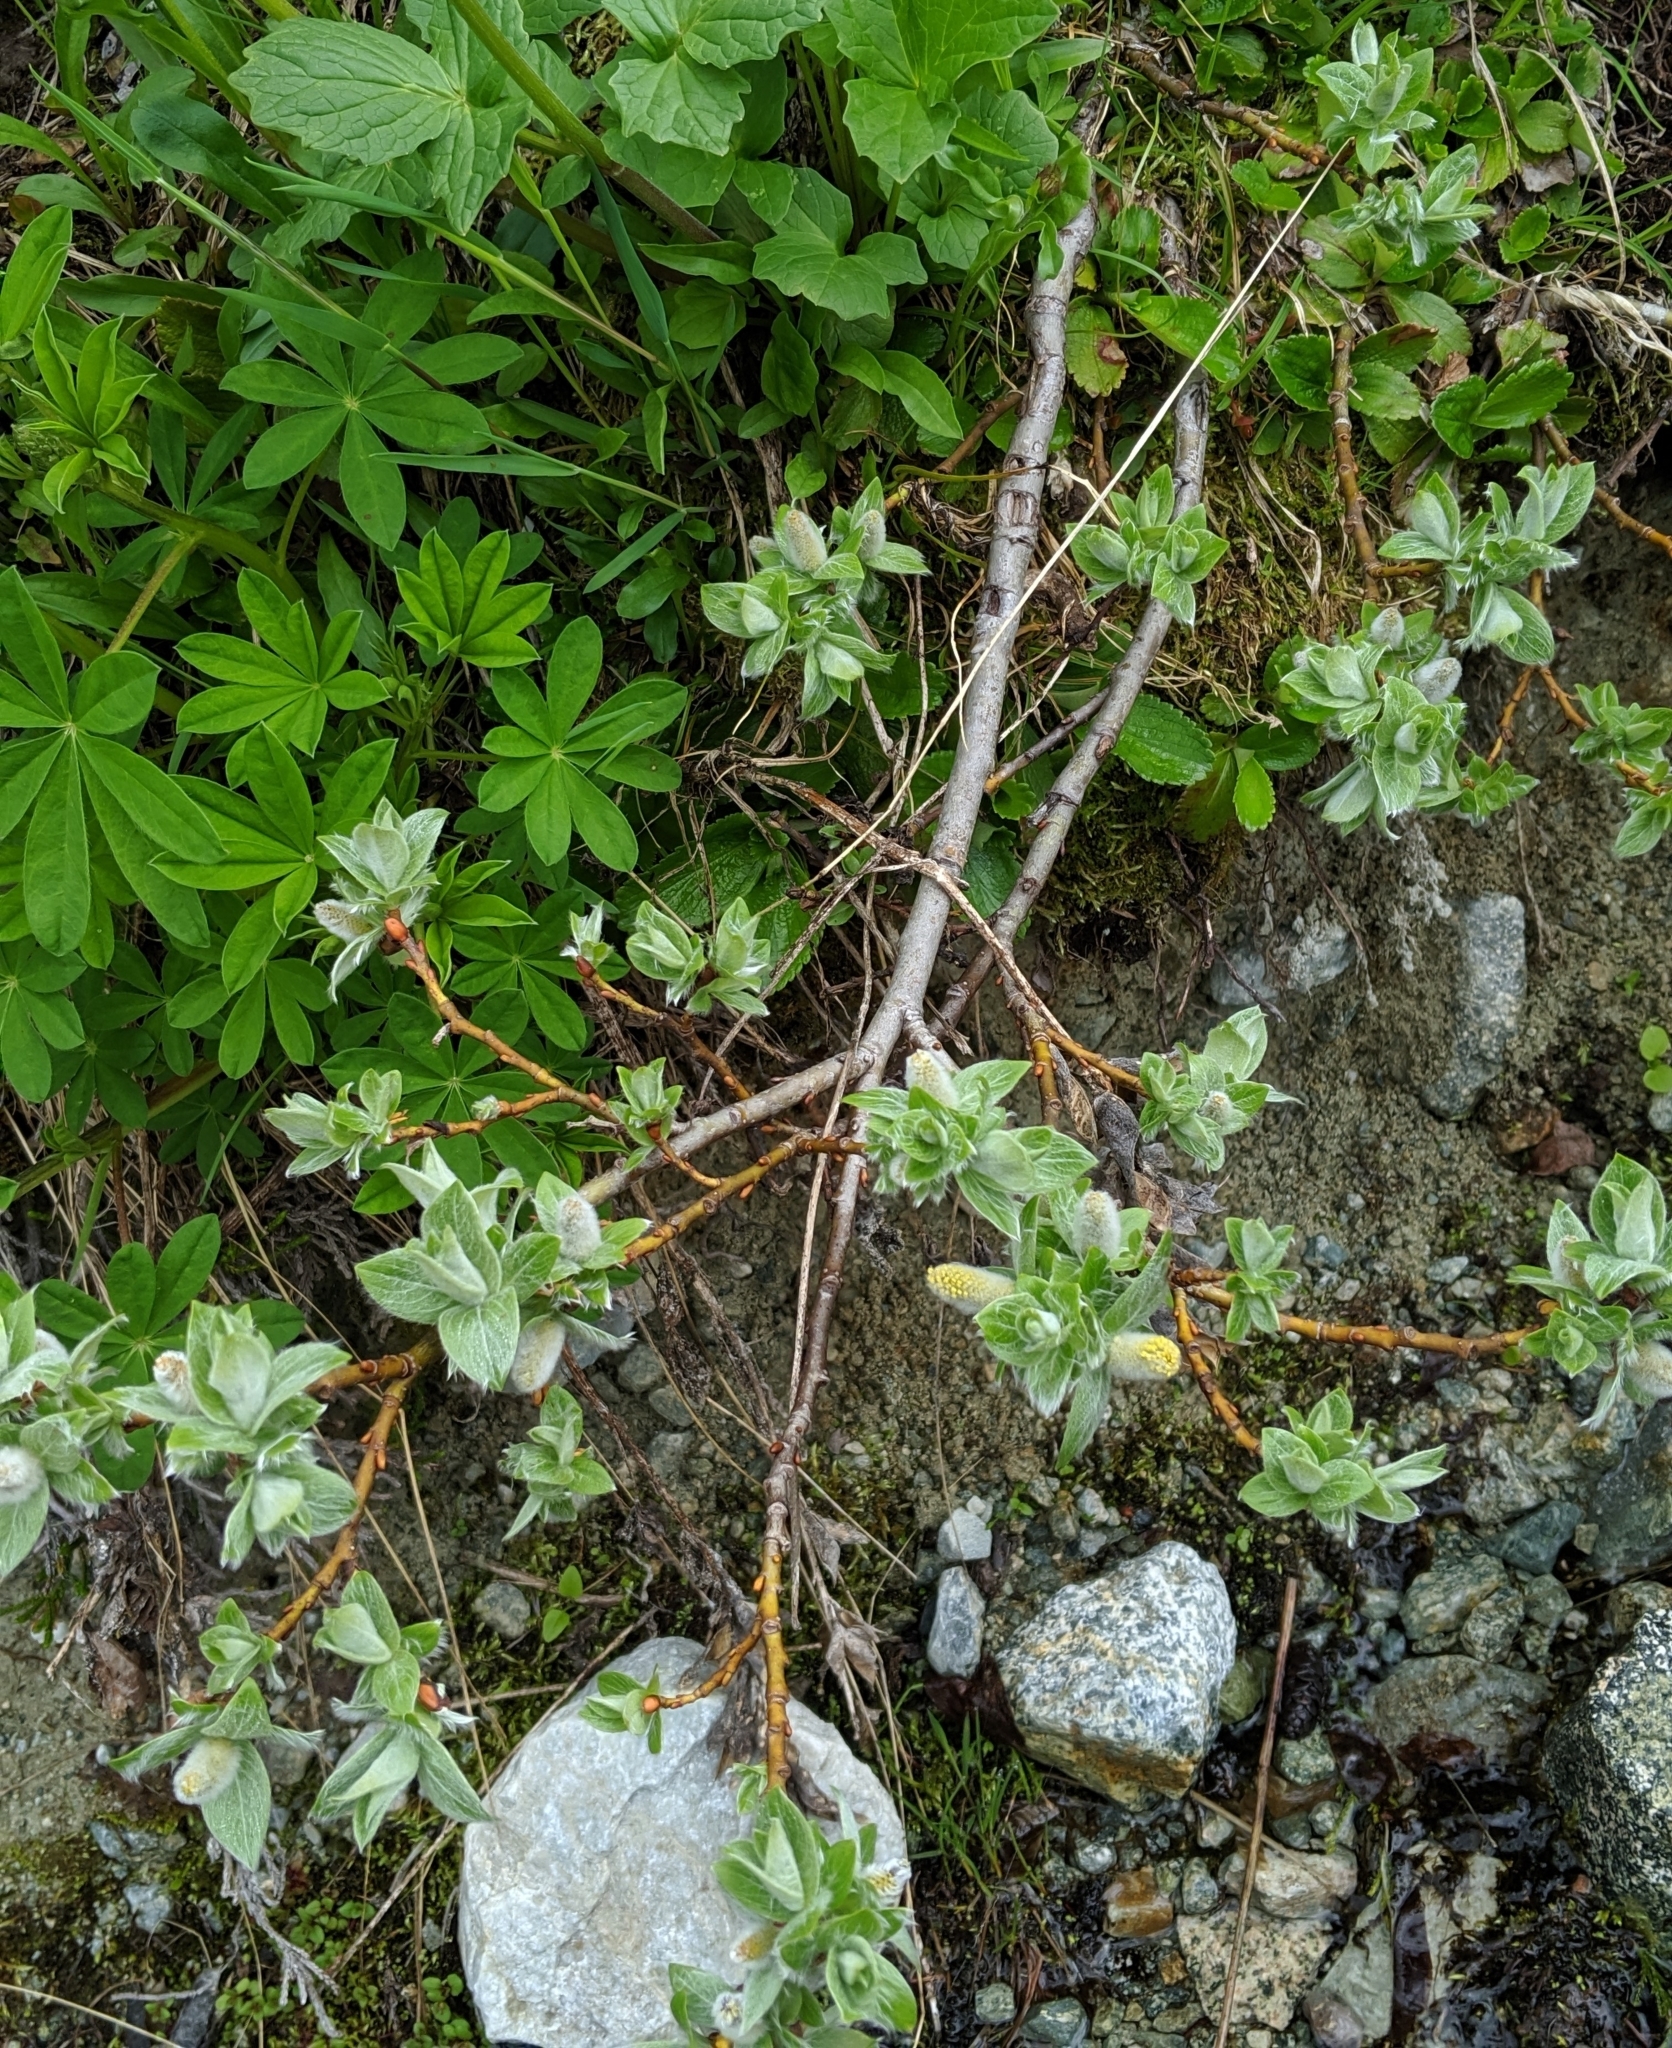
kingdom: Plantae
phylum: Tracheophyta
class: Magnoliopsida
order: Malpighiales
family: Salicaceae
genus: Salix
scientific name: Salix commutata
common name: Under-green willow
